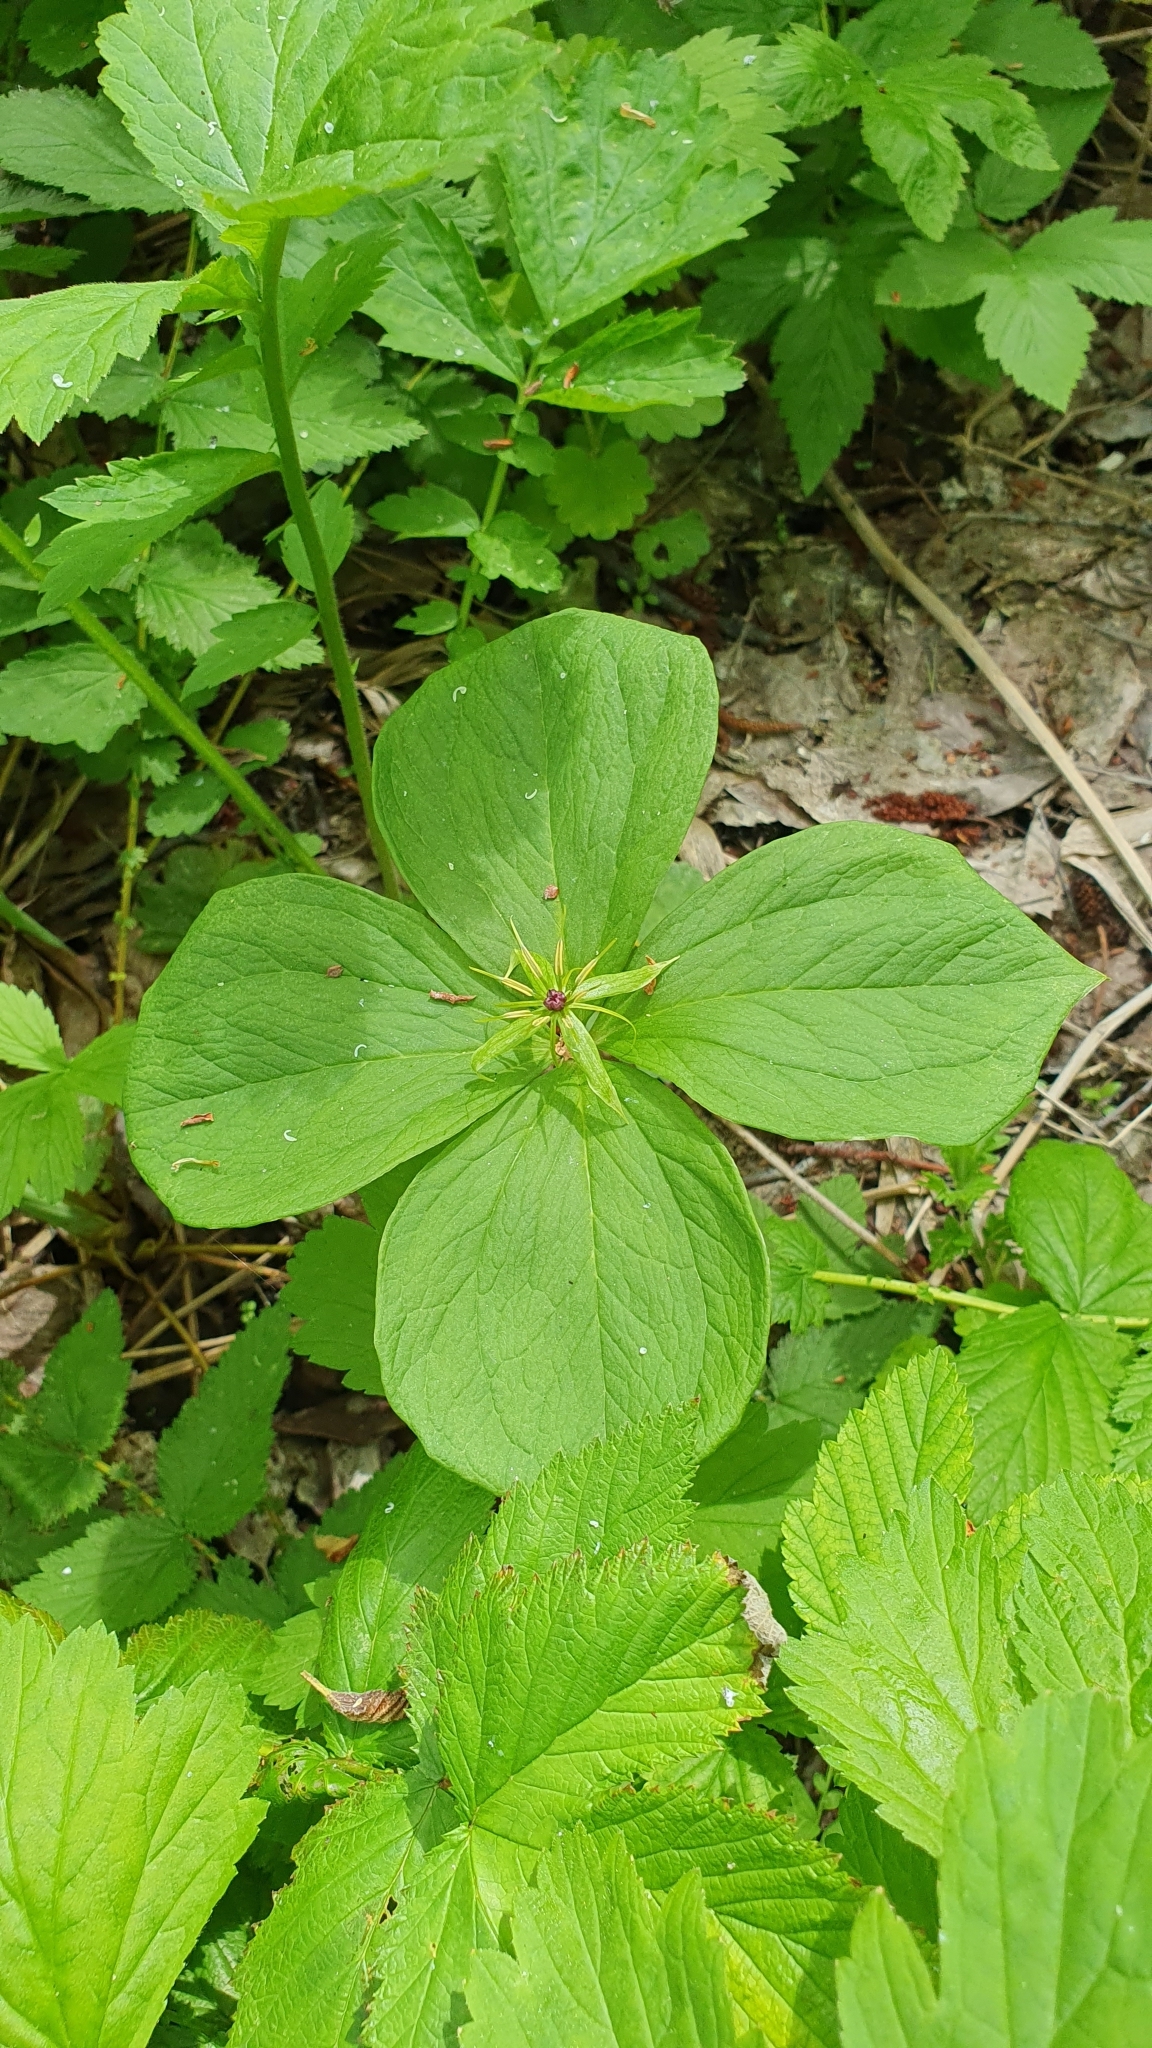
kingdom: Plantae
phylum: Tracheophyta
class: Liliopsida
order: Liliales
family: Melanthiaceae
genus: Paris
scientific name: Paris quadrifolia
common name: Herb-paris
